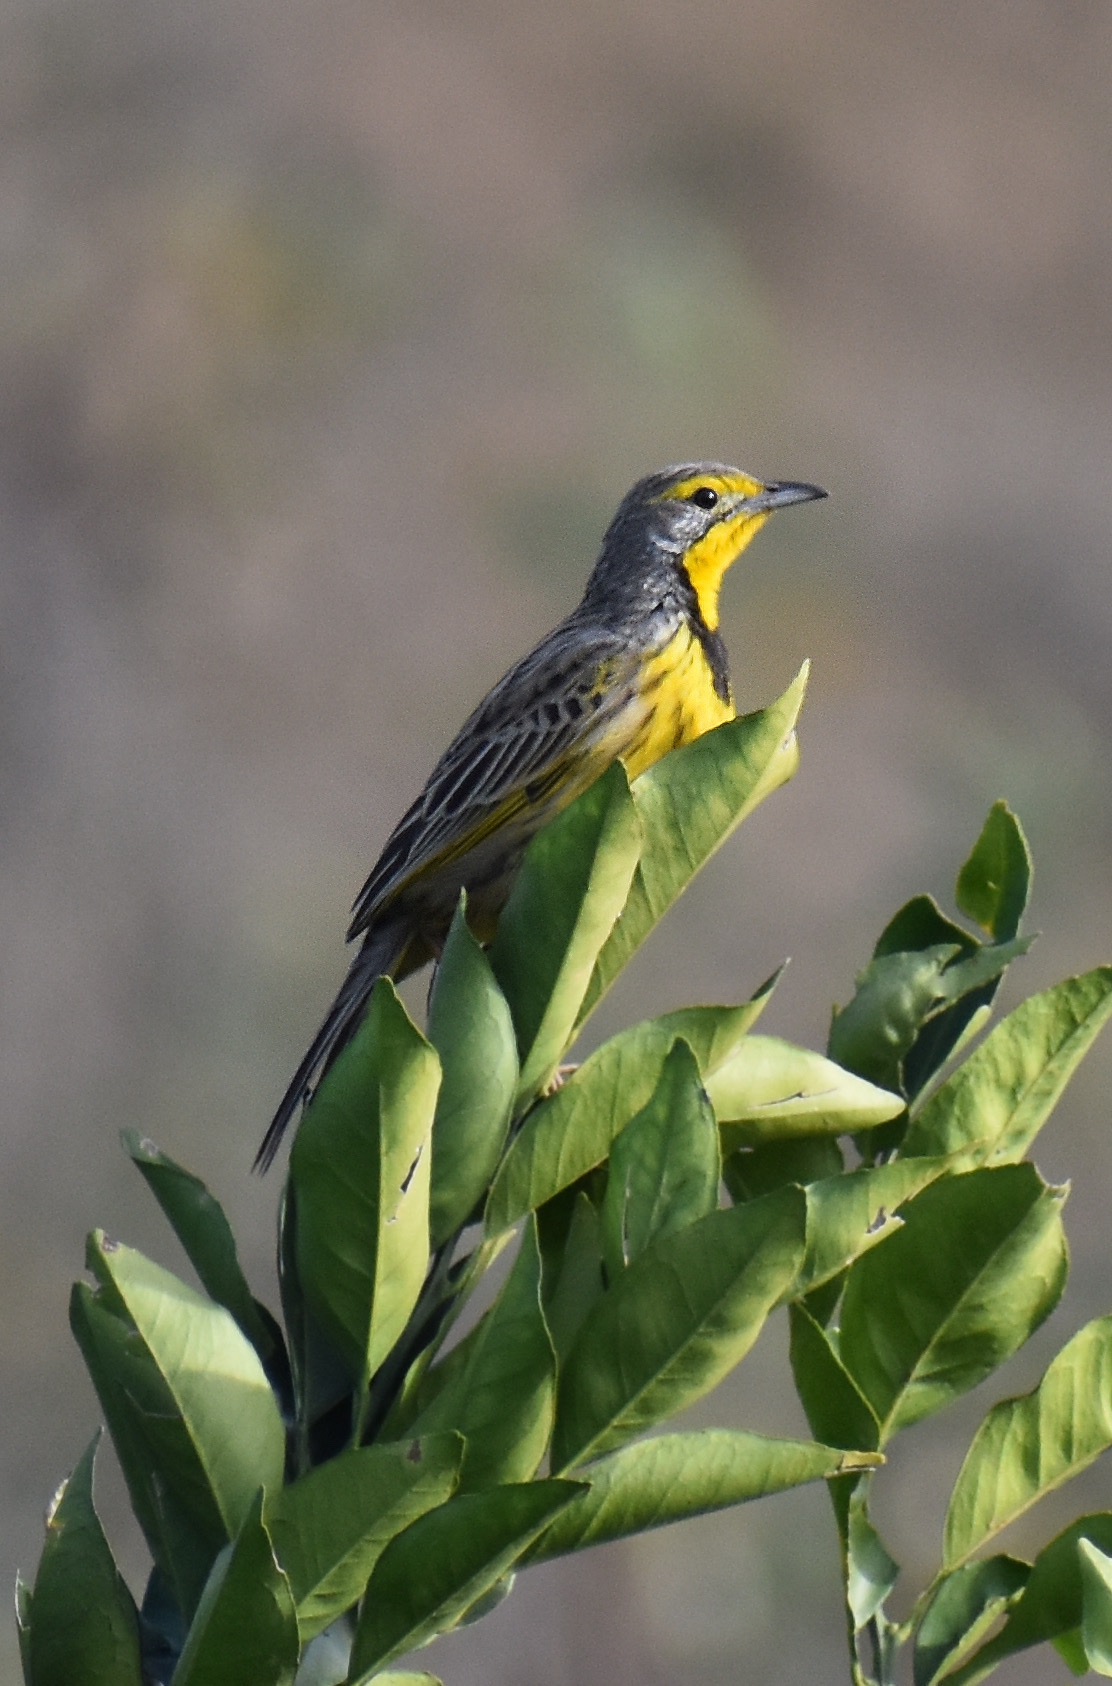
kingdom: Animalia
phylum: Chordata
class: Aves
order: Passeriformes
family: Motacillidae
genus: Macronyx
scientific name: Macronyx croceus
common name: Yellow-throated longclaw
